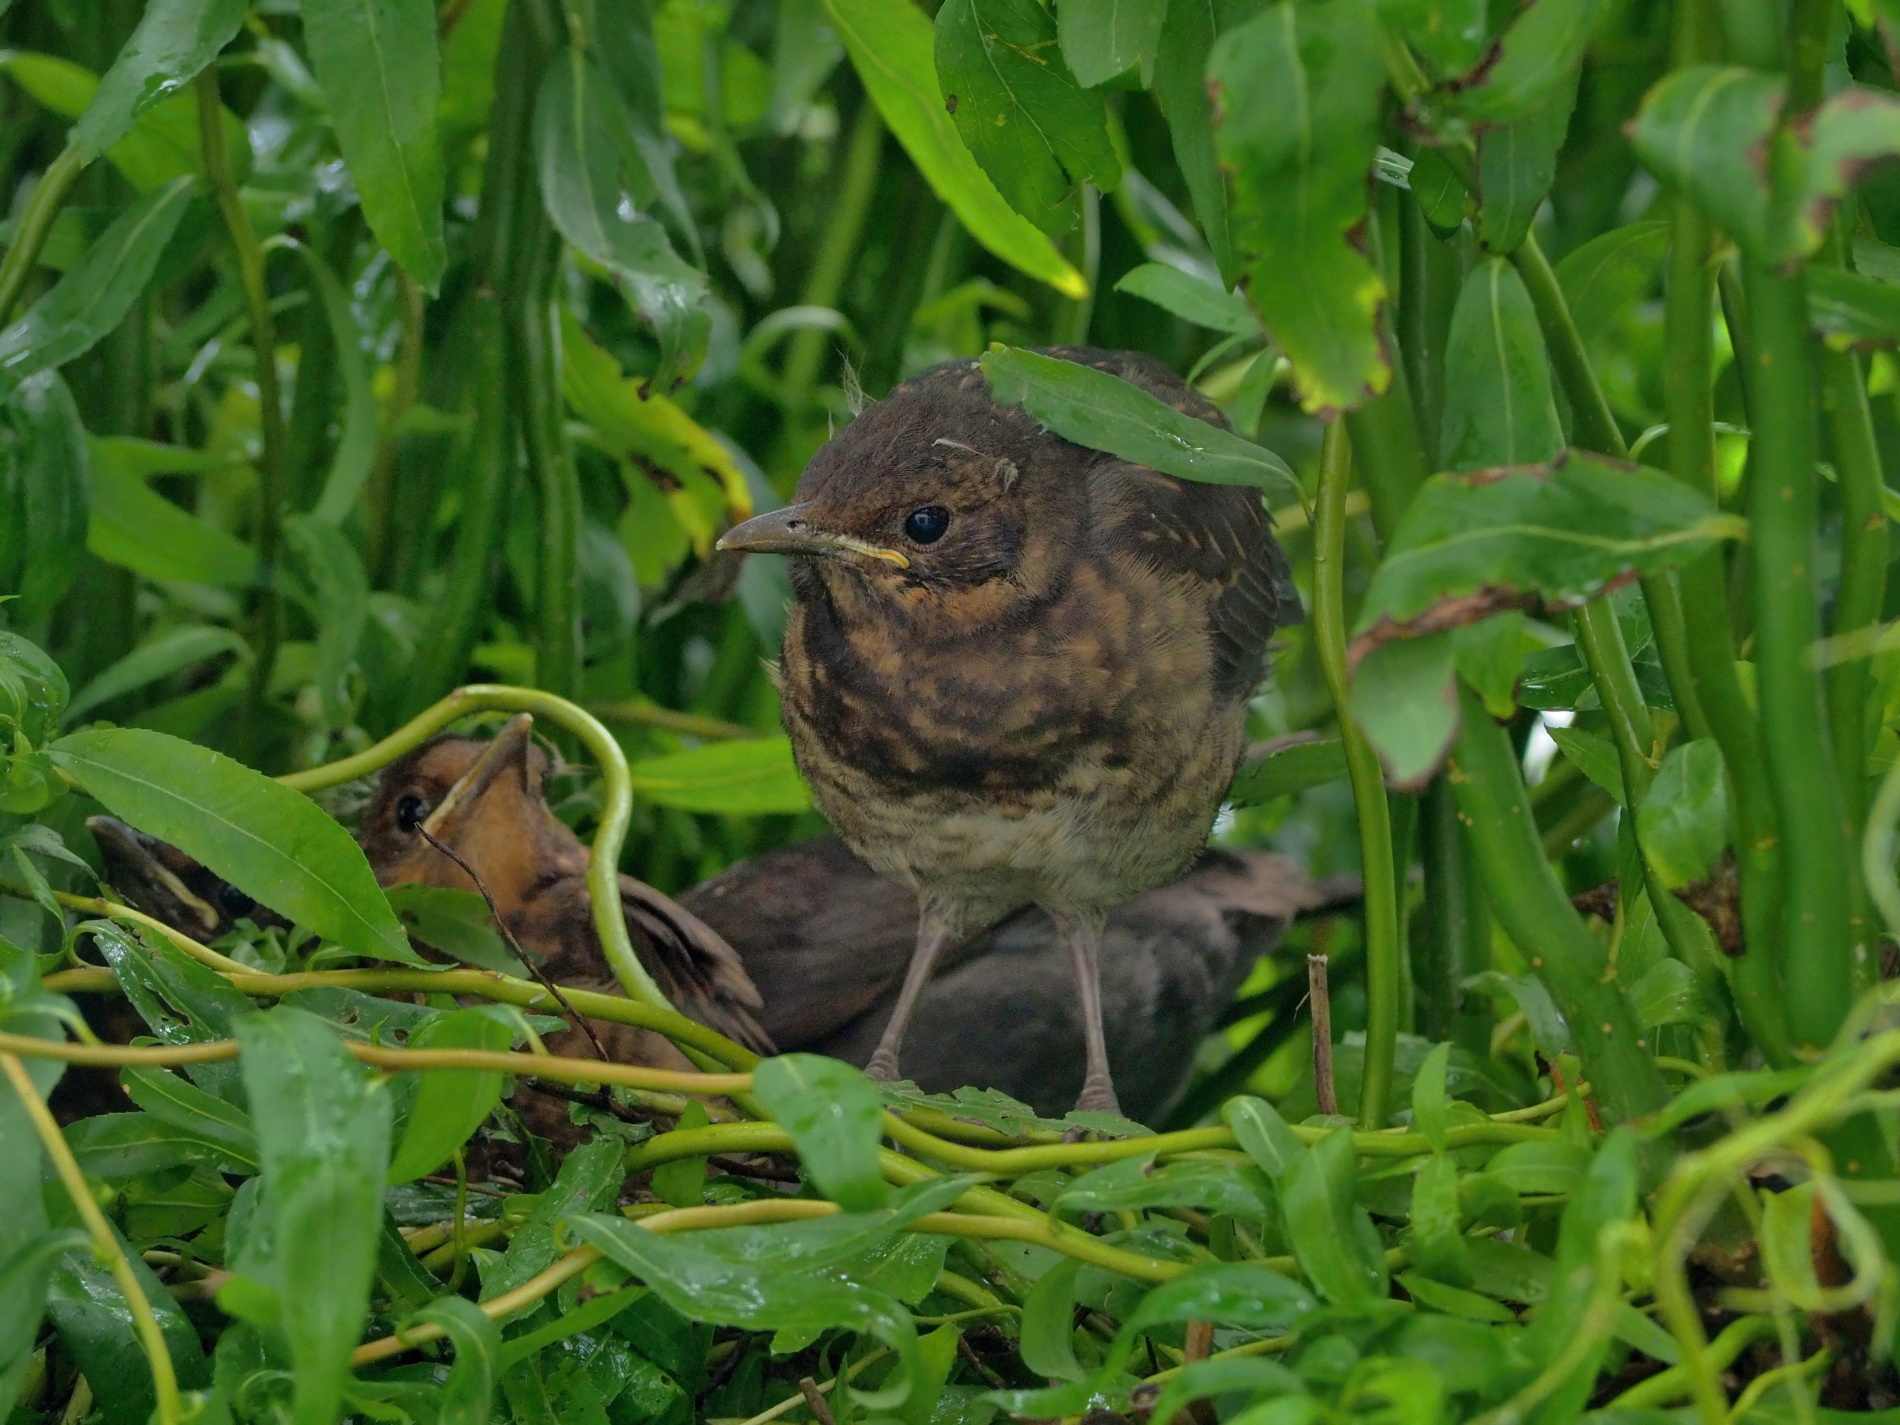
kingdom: Animalia
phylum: Chordata
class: Aves
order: Passeriformes
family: Turdidae
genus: Turdus
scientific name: Turdus merula
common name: Common blackbird
